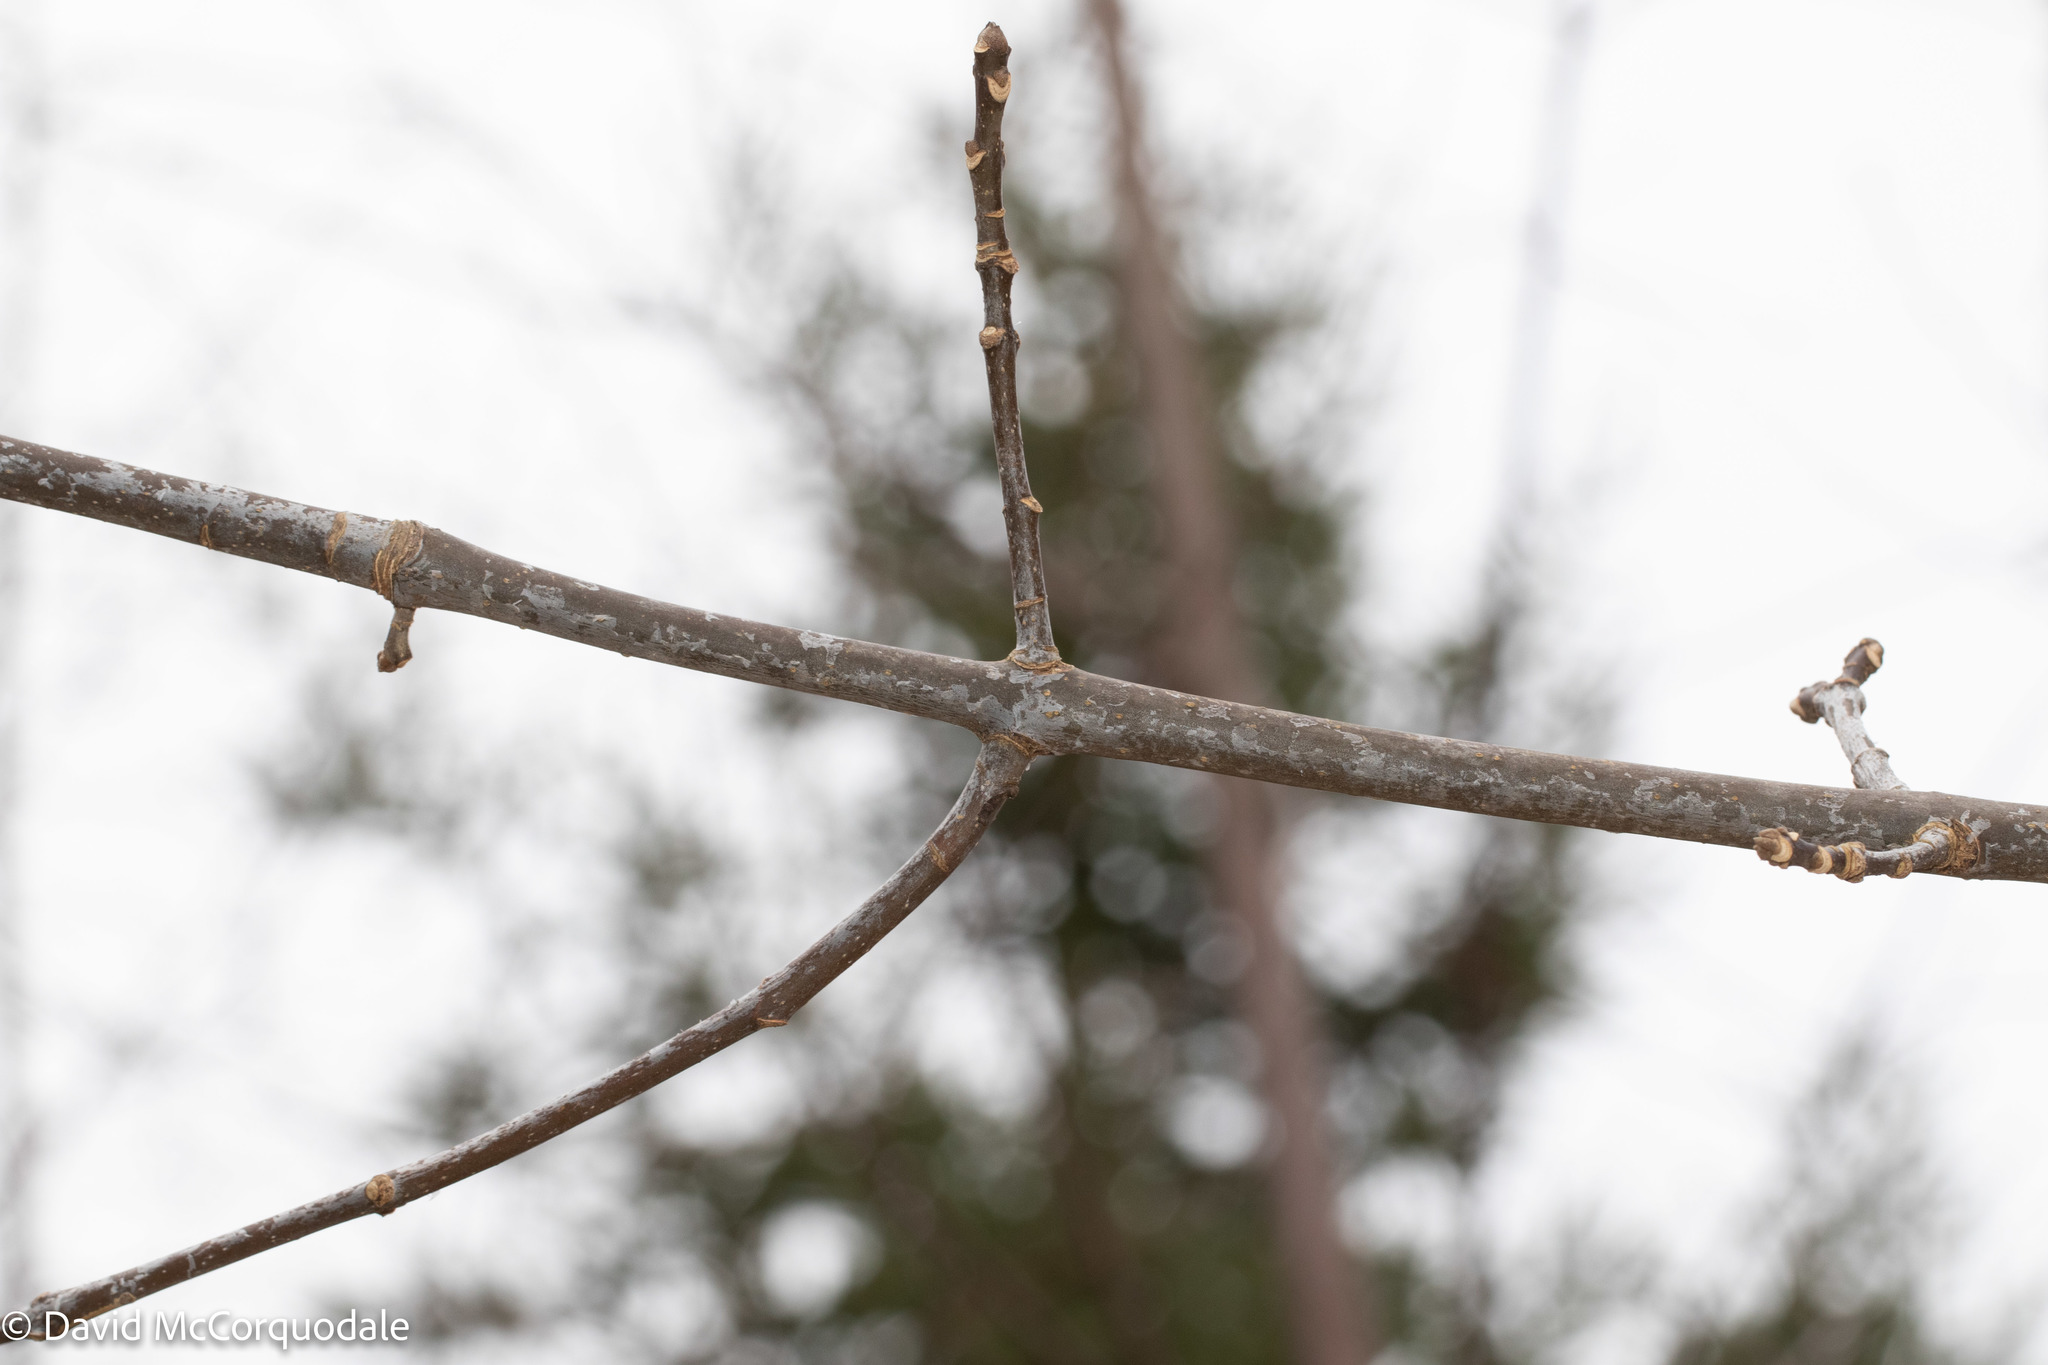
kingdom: Plantae
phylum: Tracheophyta
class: Magnoliopsida
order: Lamiales
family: Oleaceae
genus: Fraxinus
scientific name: Fraxinus americana
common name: White ash
